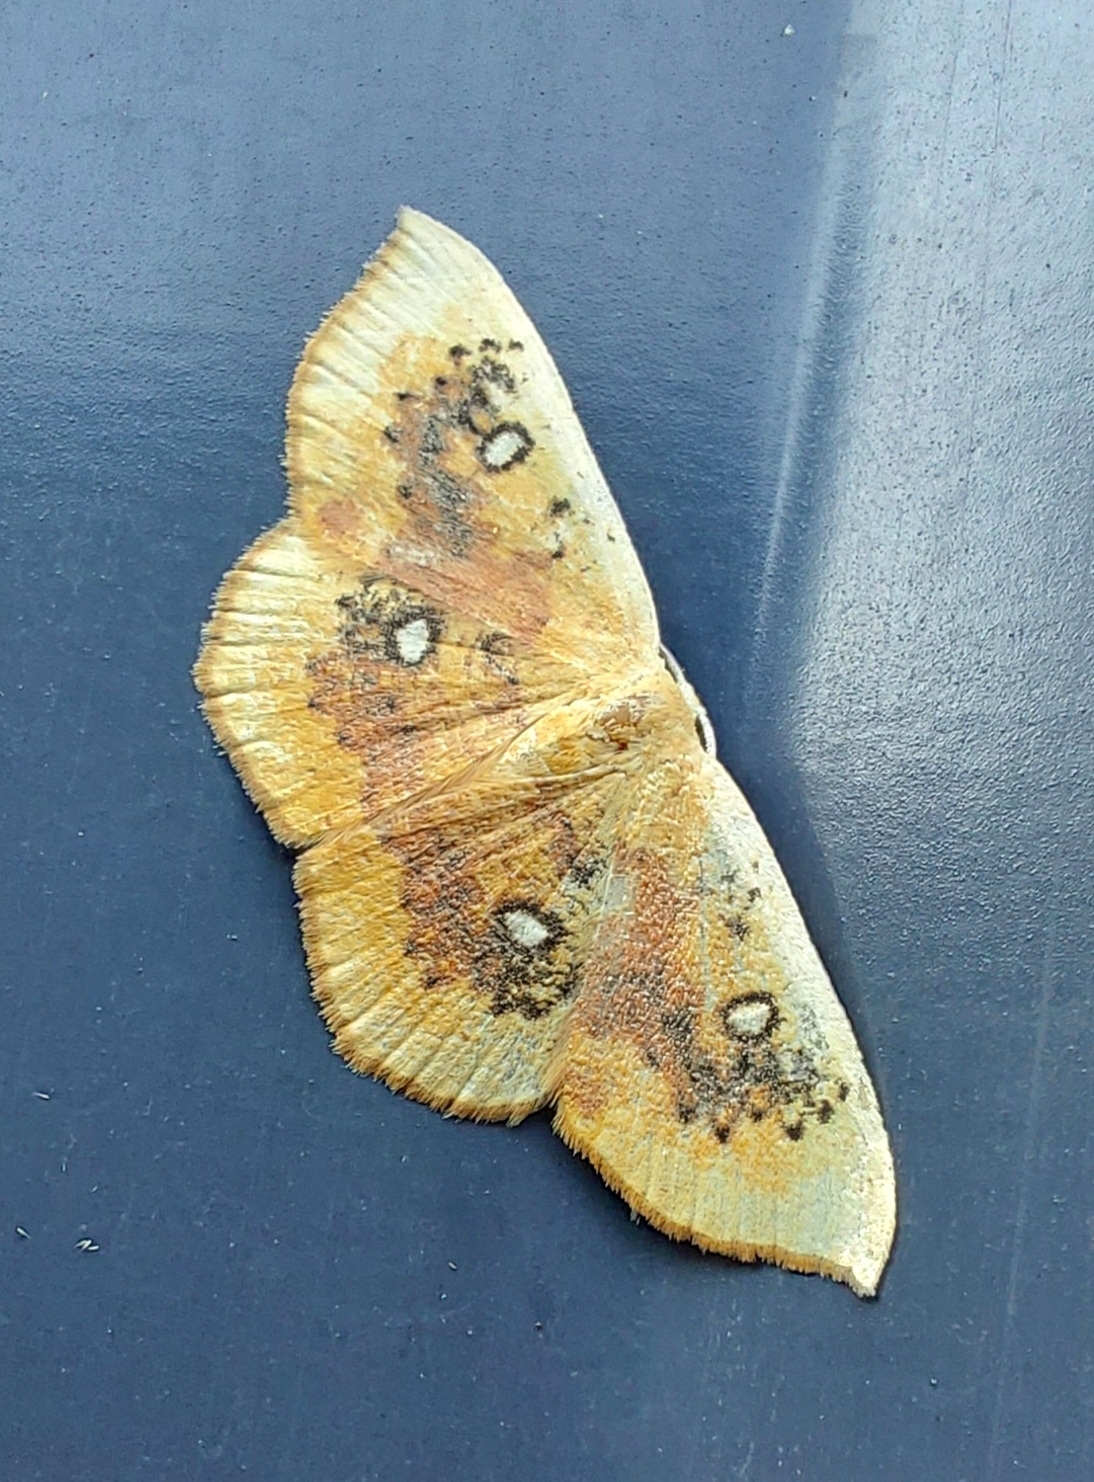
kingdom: Animalia
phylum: Arthropoda
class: Insecta
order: Lepidoptera
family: Geometridae
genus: Cyclophora
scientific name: Cyclophora albiocellaria
